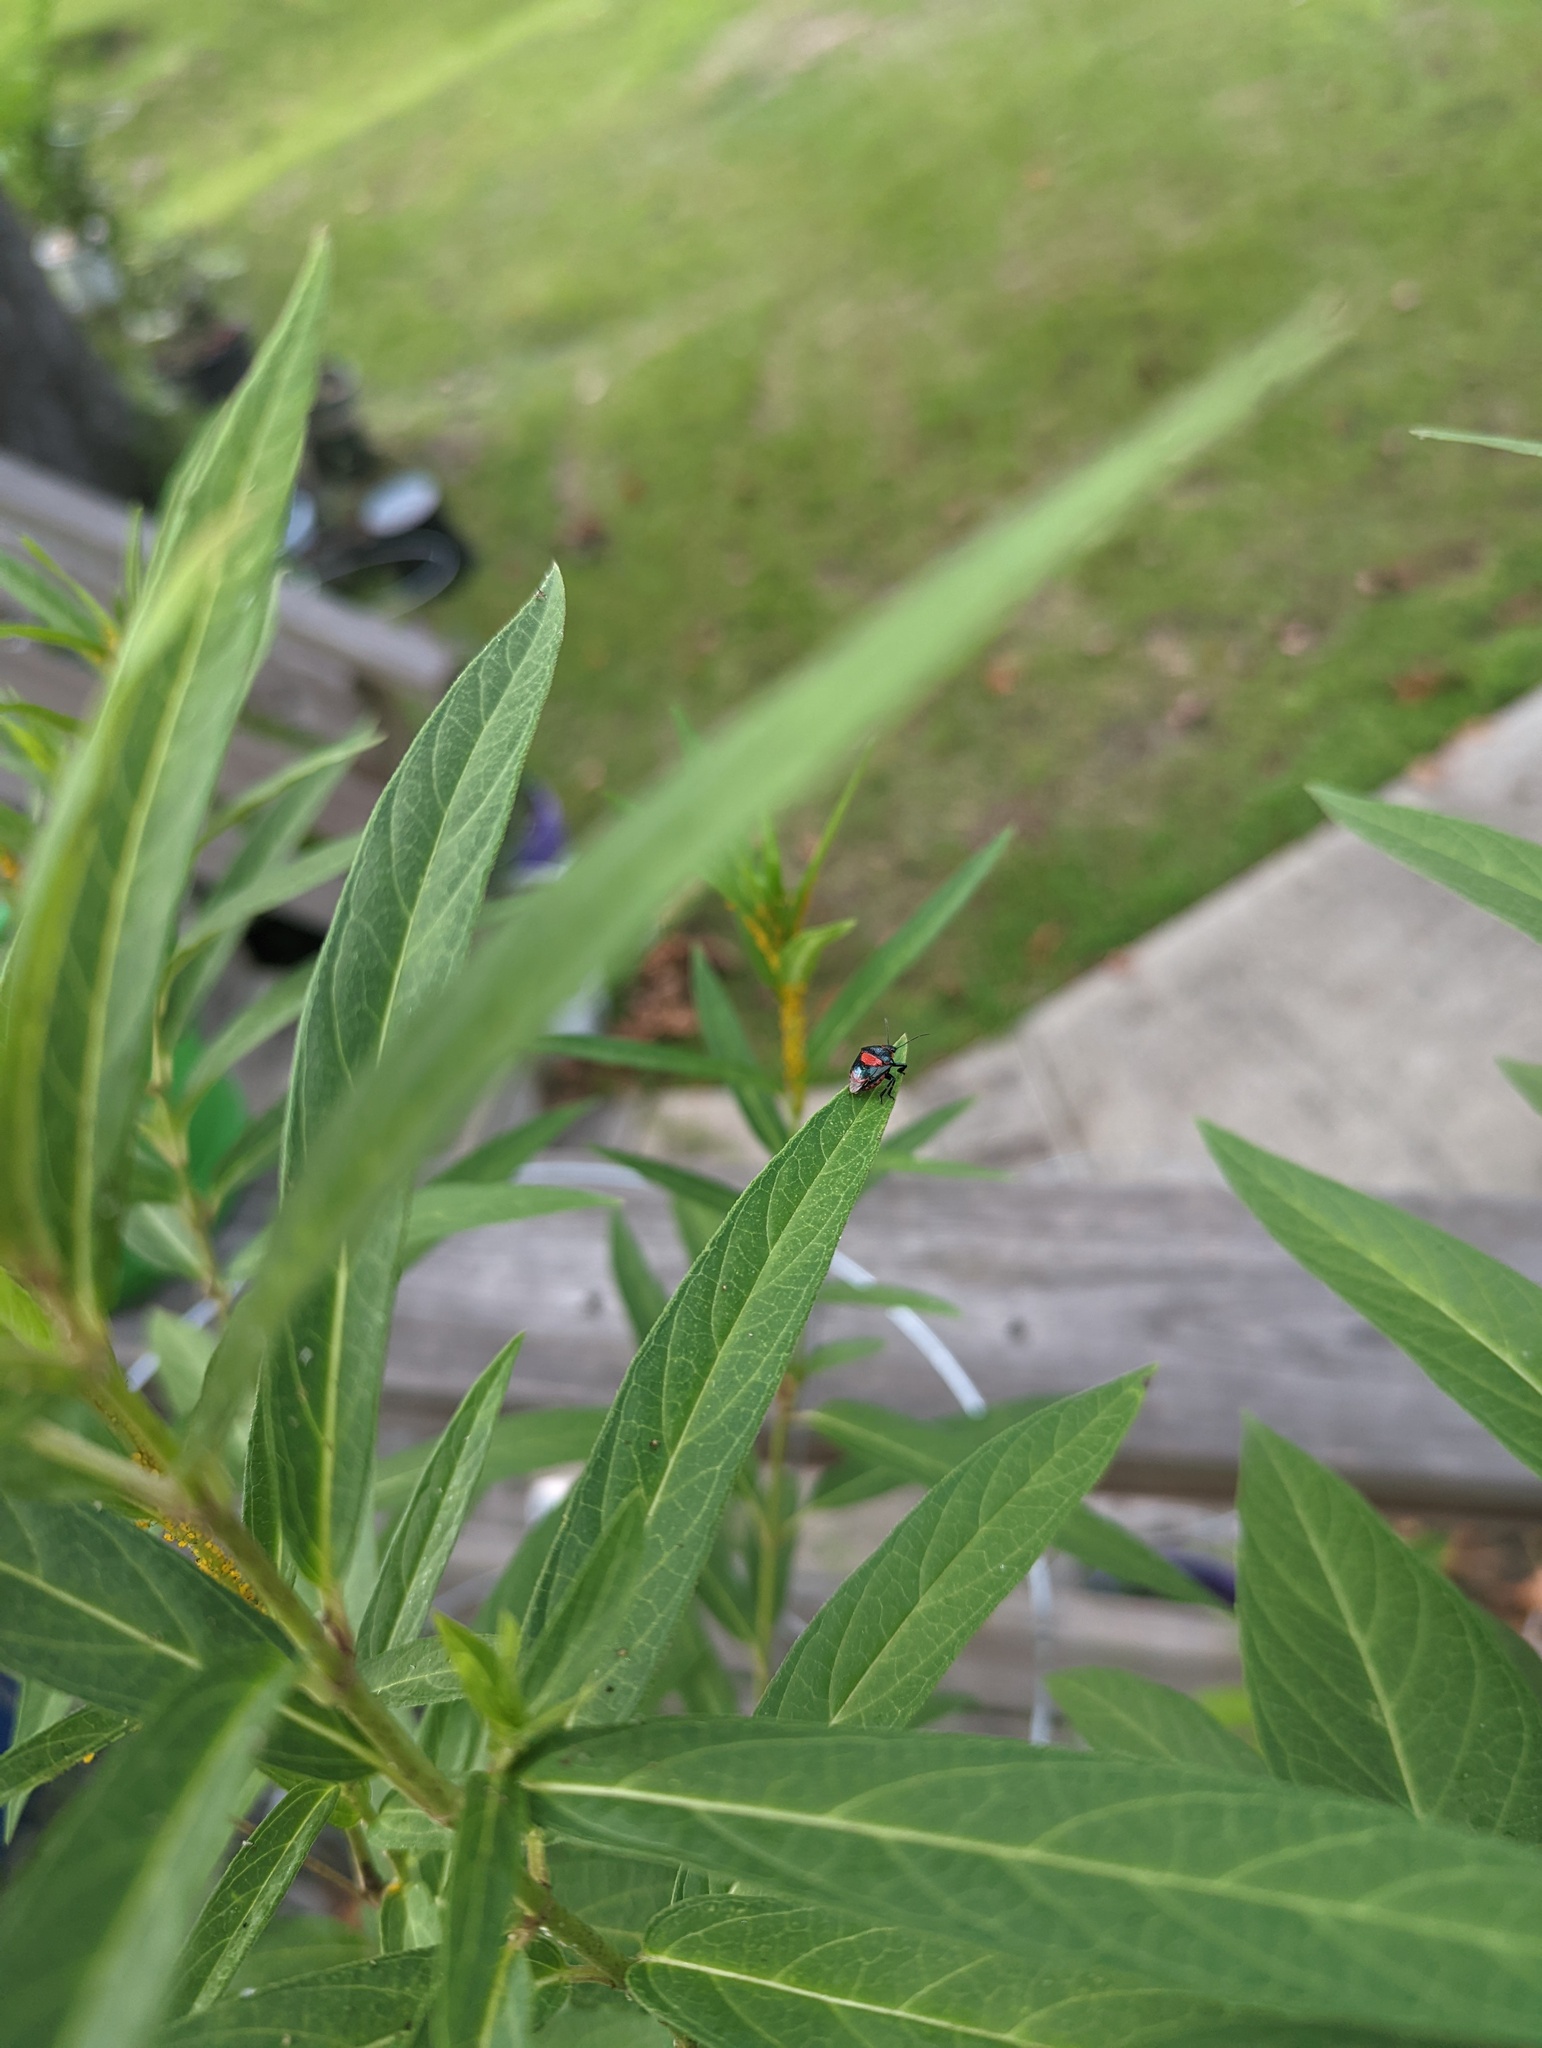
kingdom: Animalia
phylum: Arthropoda
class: Insecta
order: Hemiptera
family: Pentatomidae
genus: Stiretrus
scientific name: Stiretrus anchorago
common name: Anchor stink bug
